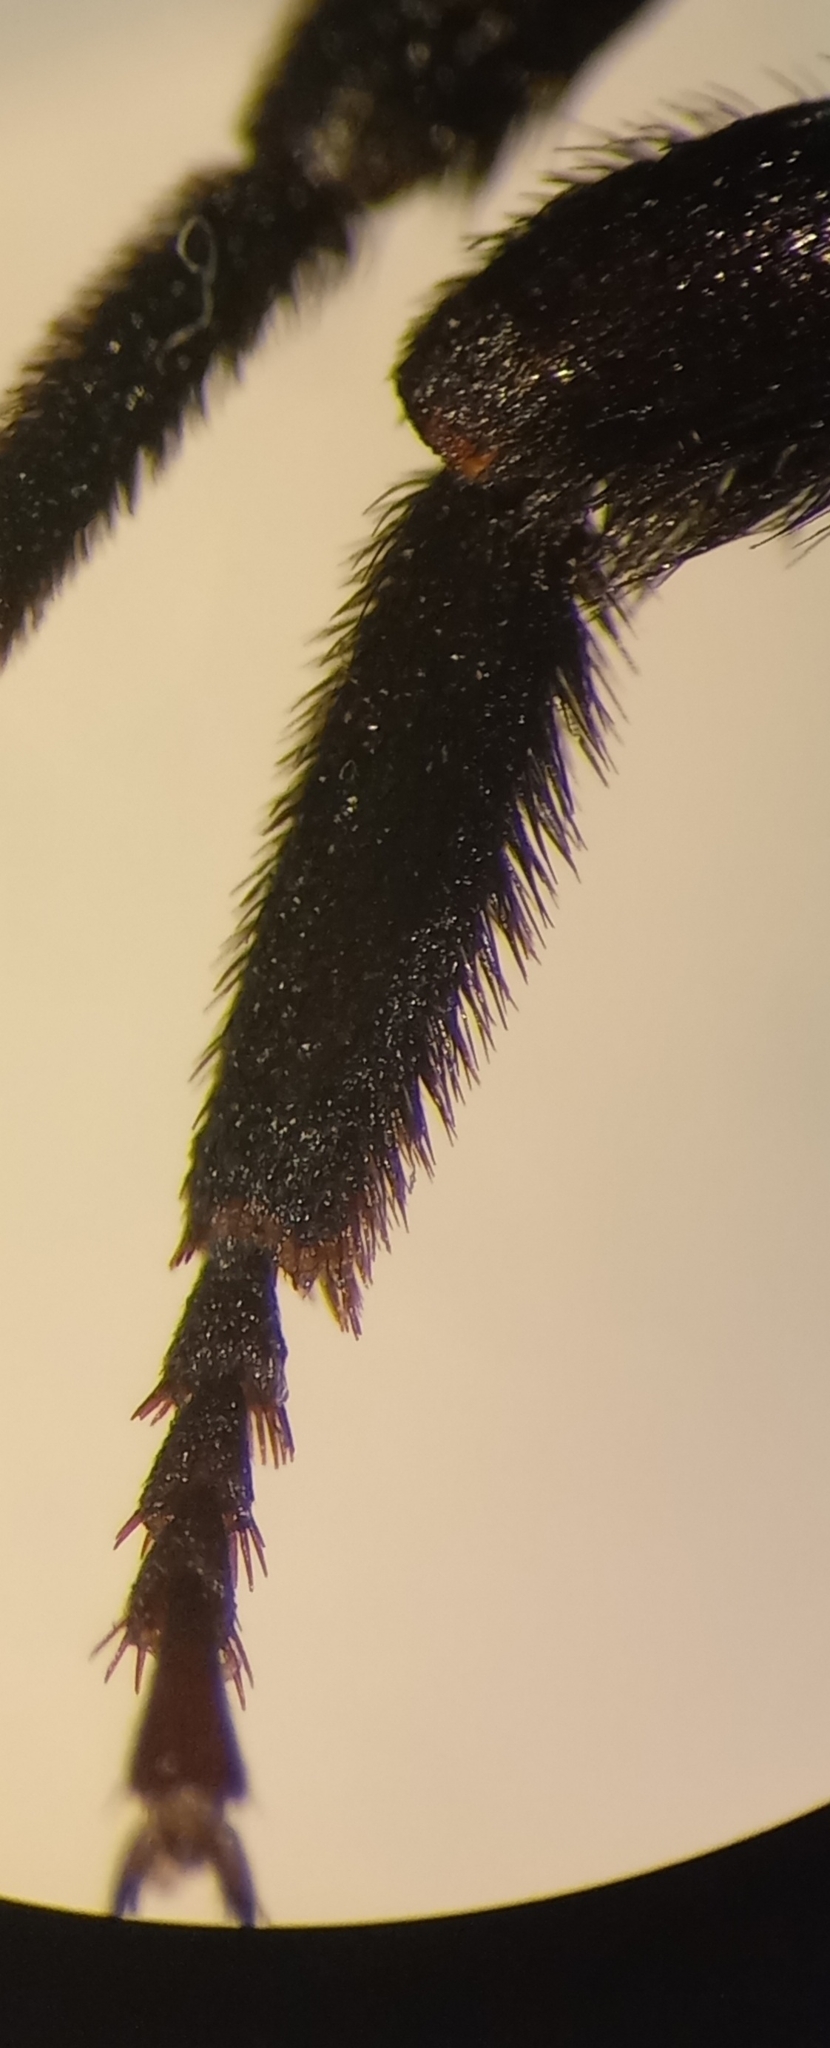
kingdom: Animalia
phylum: Arthropoda
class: Insecta
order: Hymenoptera
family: Apidae
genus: Bombus
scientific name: Bombus lapidarius
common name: Large red-tailed humble-bee
